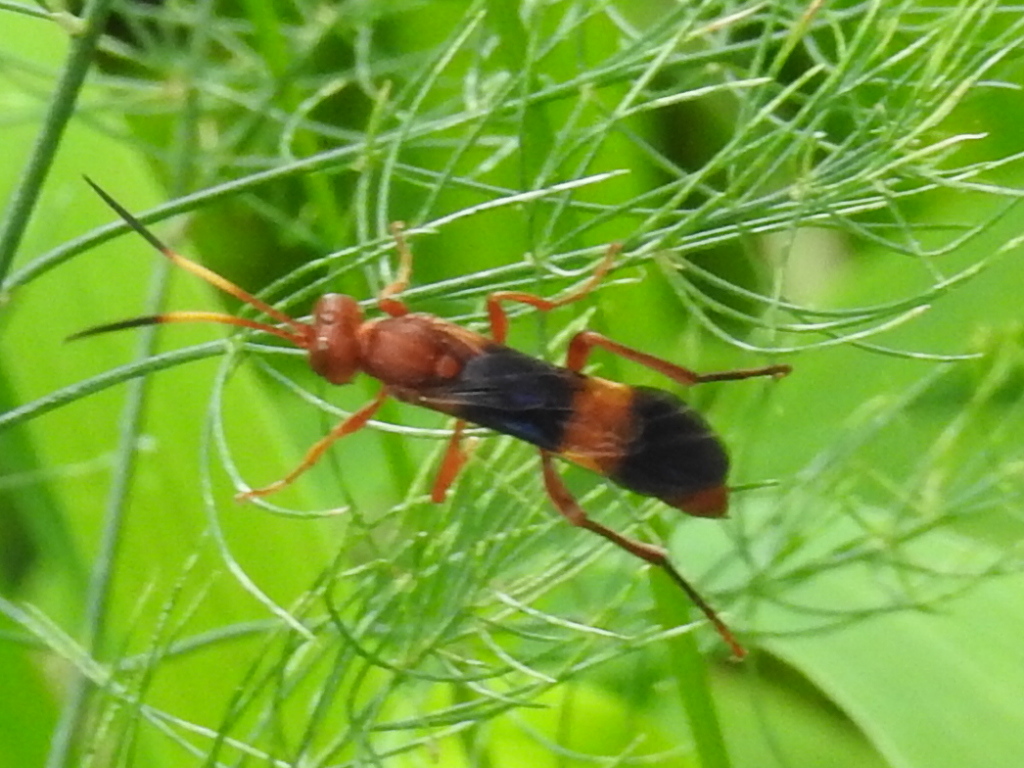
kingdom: Animalia
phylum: Arthropoda
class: Insecta
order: Hymenoptera
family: Ichneumonidae
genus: Trogomorpha
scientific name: Trogomorpha arrogans
